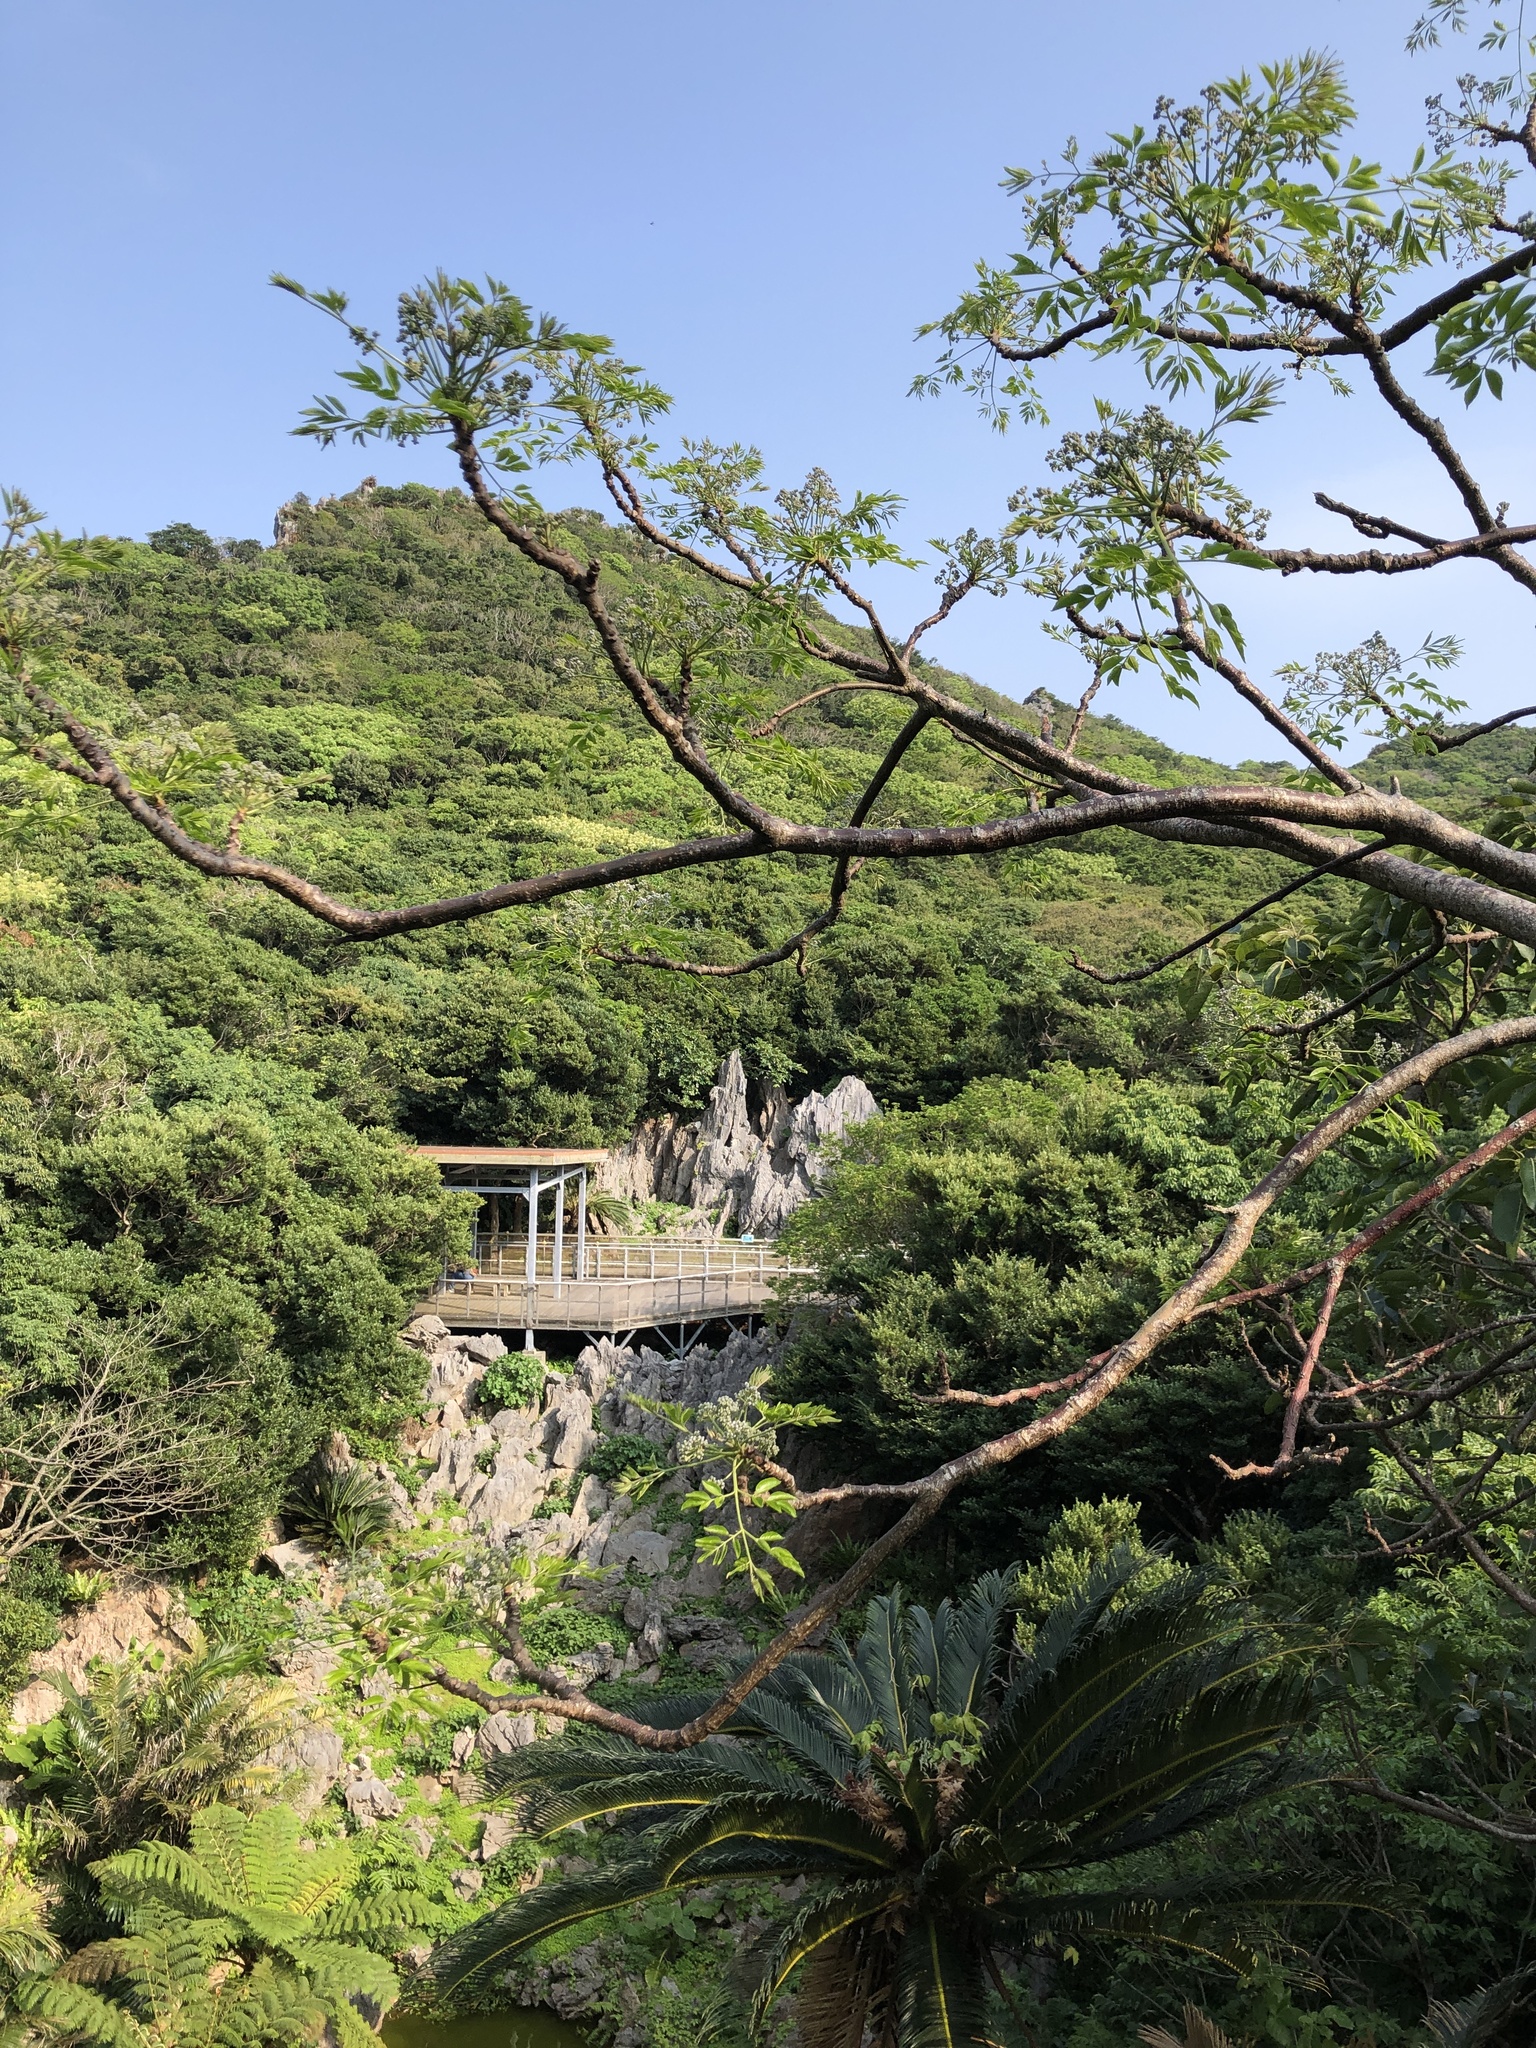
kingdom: Plantae
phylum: Tracheophyta
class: Magnoliopsida
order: Sapindales
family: Meliaceae
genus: Melia
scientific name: Melia azedarach
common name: Chinaberrytree
